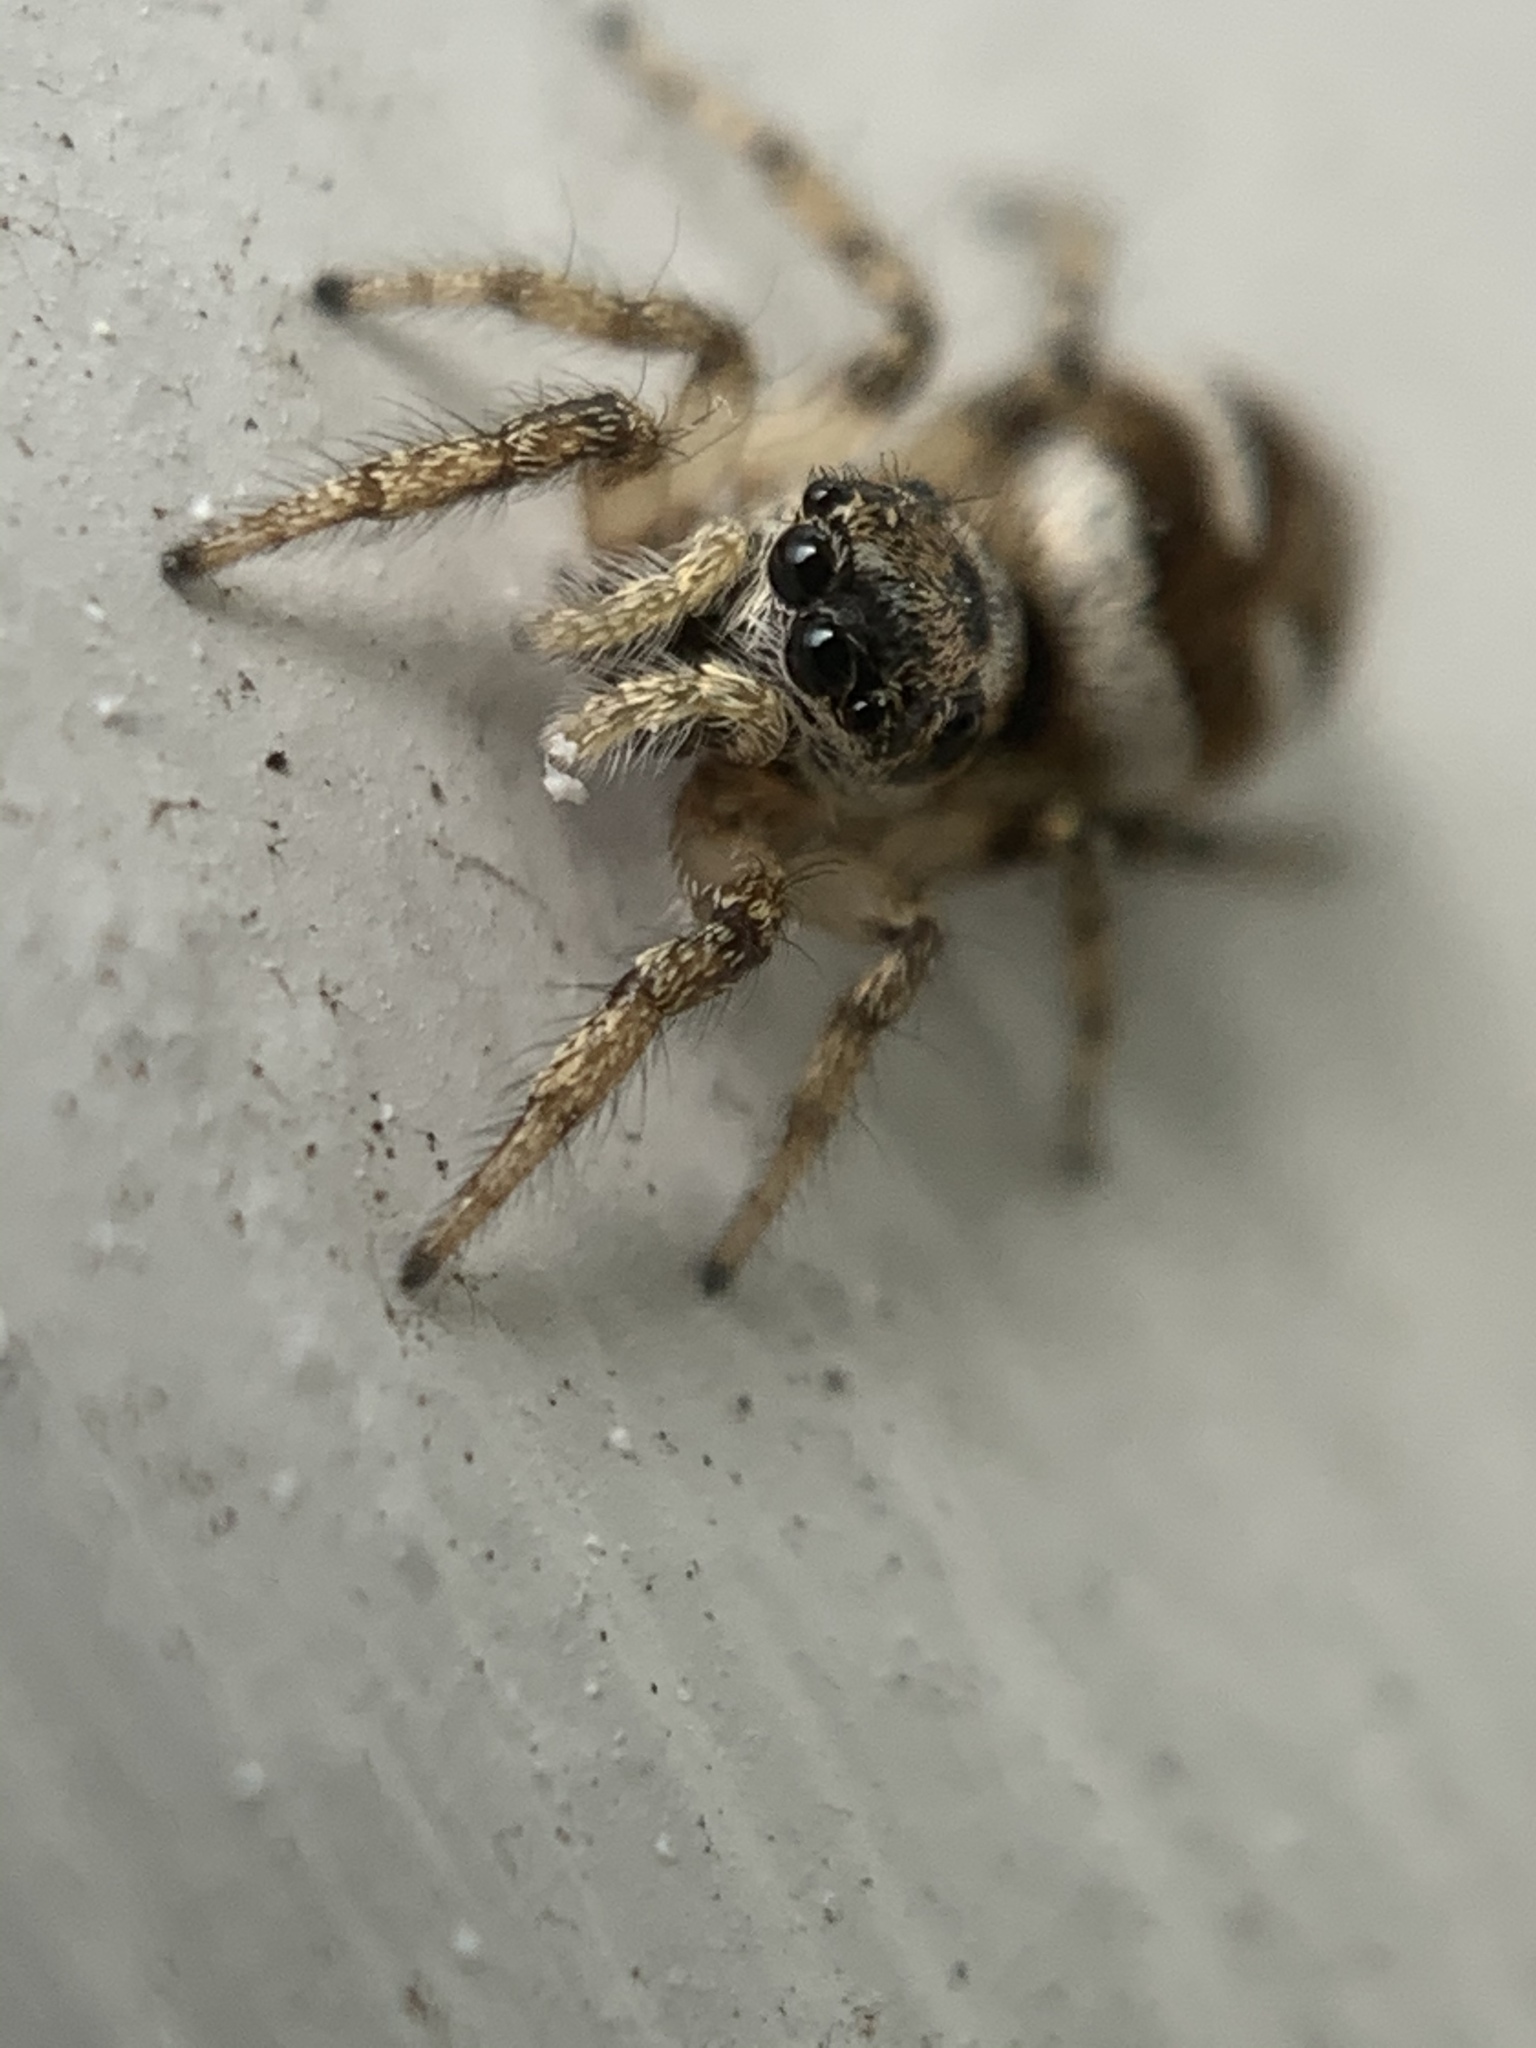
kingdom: Animalia
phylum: Arthropoda
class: Arachnida
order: Araneae
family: Salticidae
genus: Salticus
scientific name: Salticus scenicus
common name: Zebra jumper
